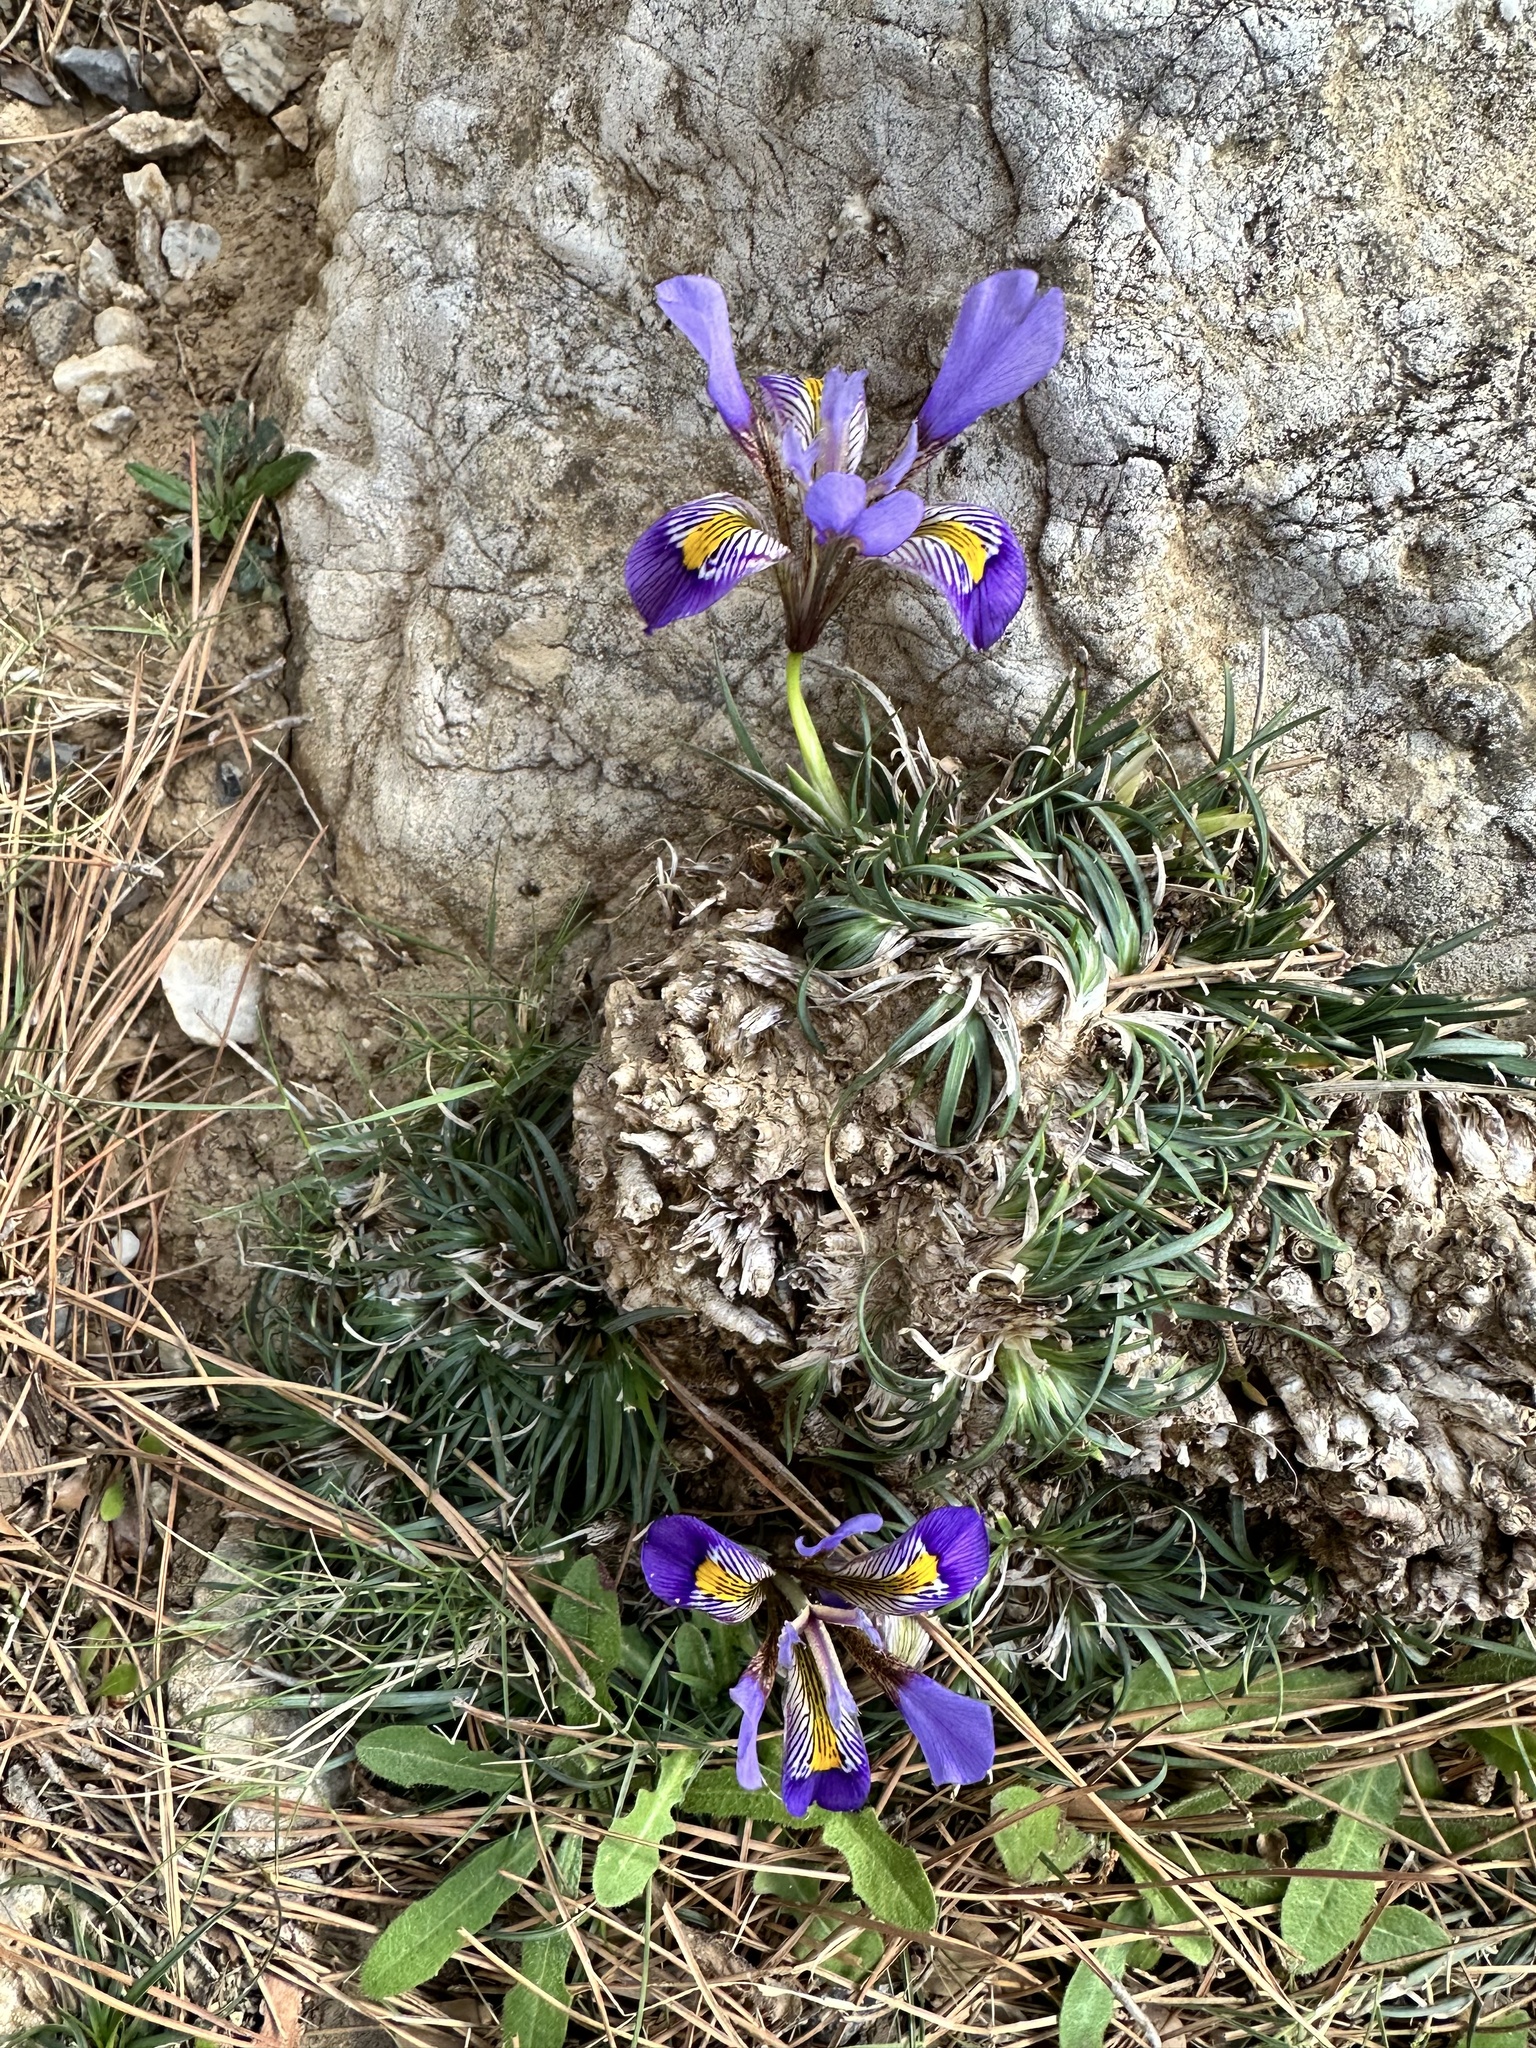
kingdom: Plantae
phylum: Tracheophyta
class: Liliopsida
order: Asparagales
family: Iridaceae
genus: Iris
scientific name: Iris unguicularis
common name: Algerian iris
